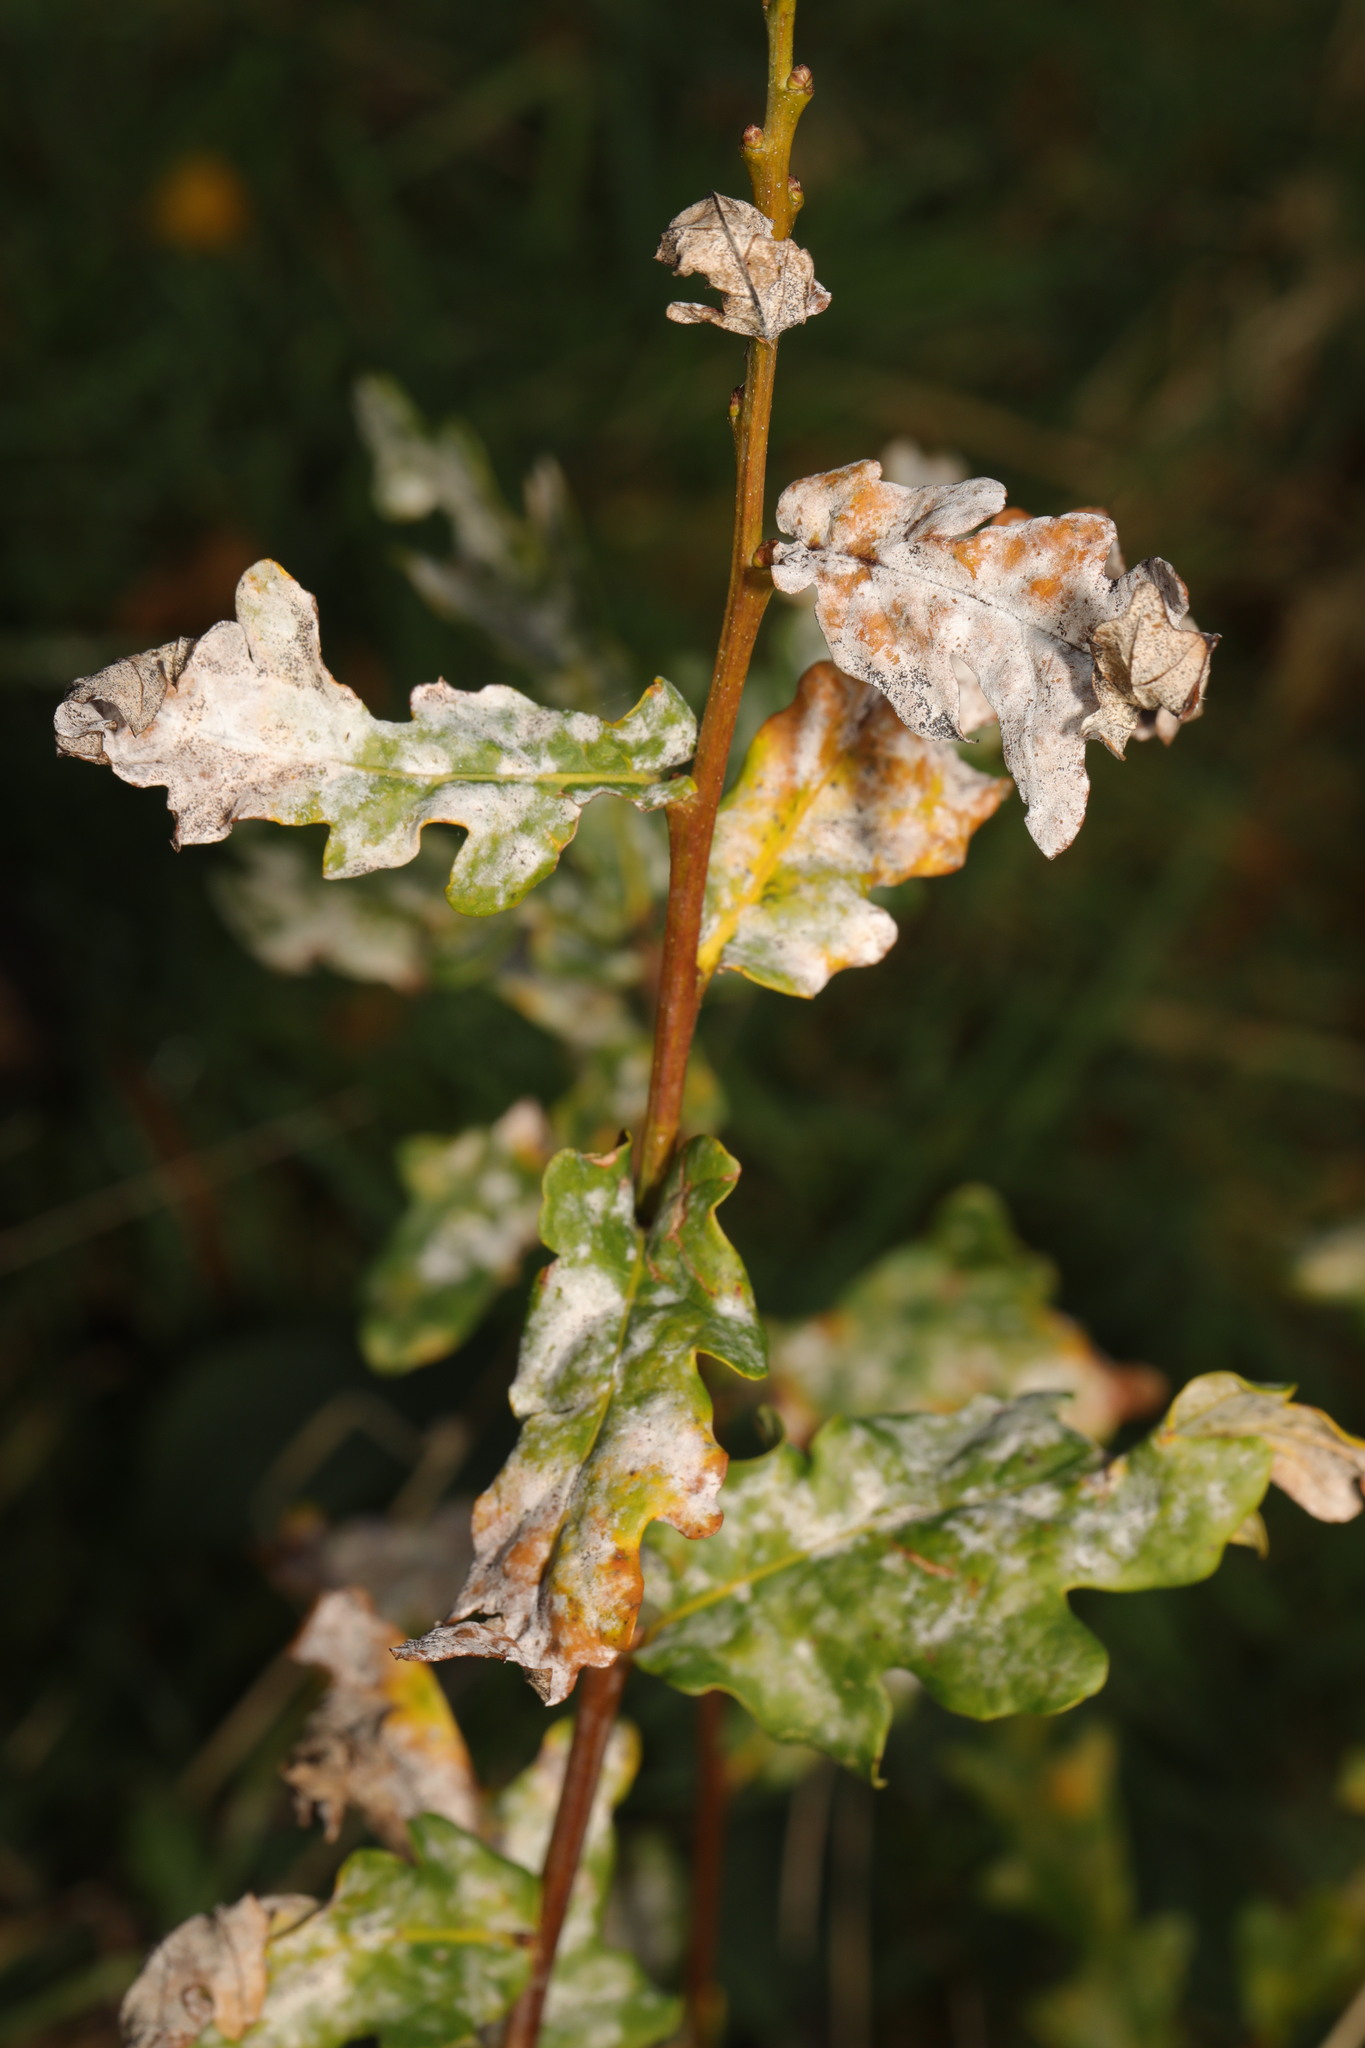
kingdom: Fungi
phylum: Ascomycota
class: Leotiomycetes
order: Helotiales
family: Erysiphaceae
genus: Erysiphe
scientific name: Erysiphe alphitoides
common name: Oak mildew
